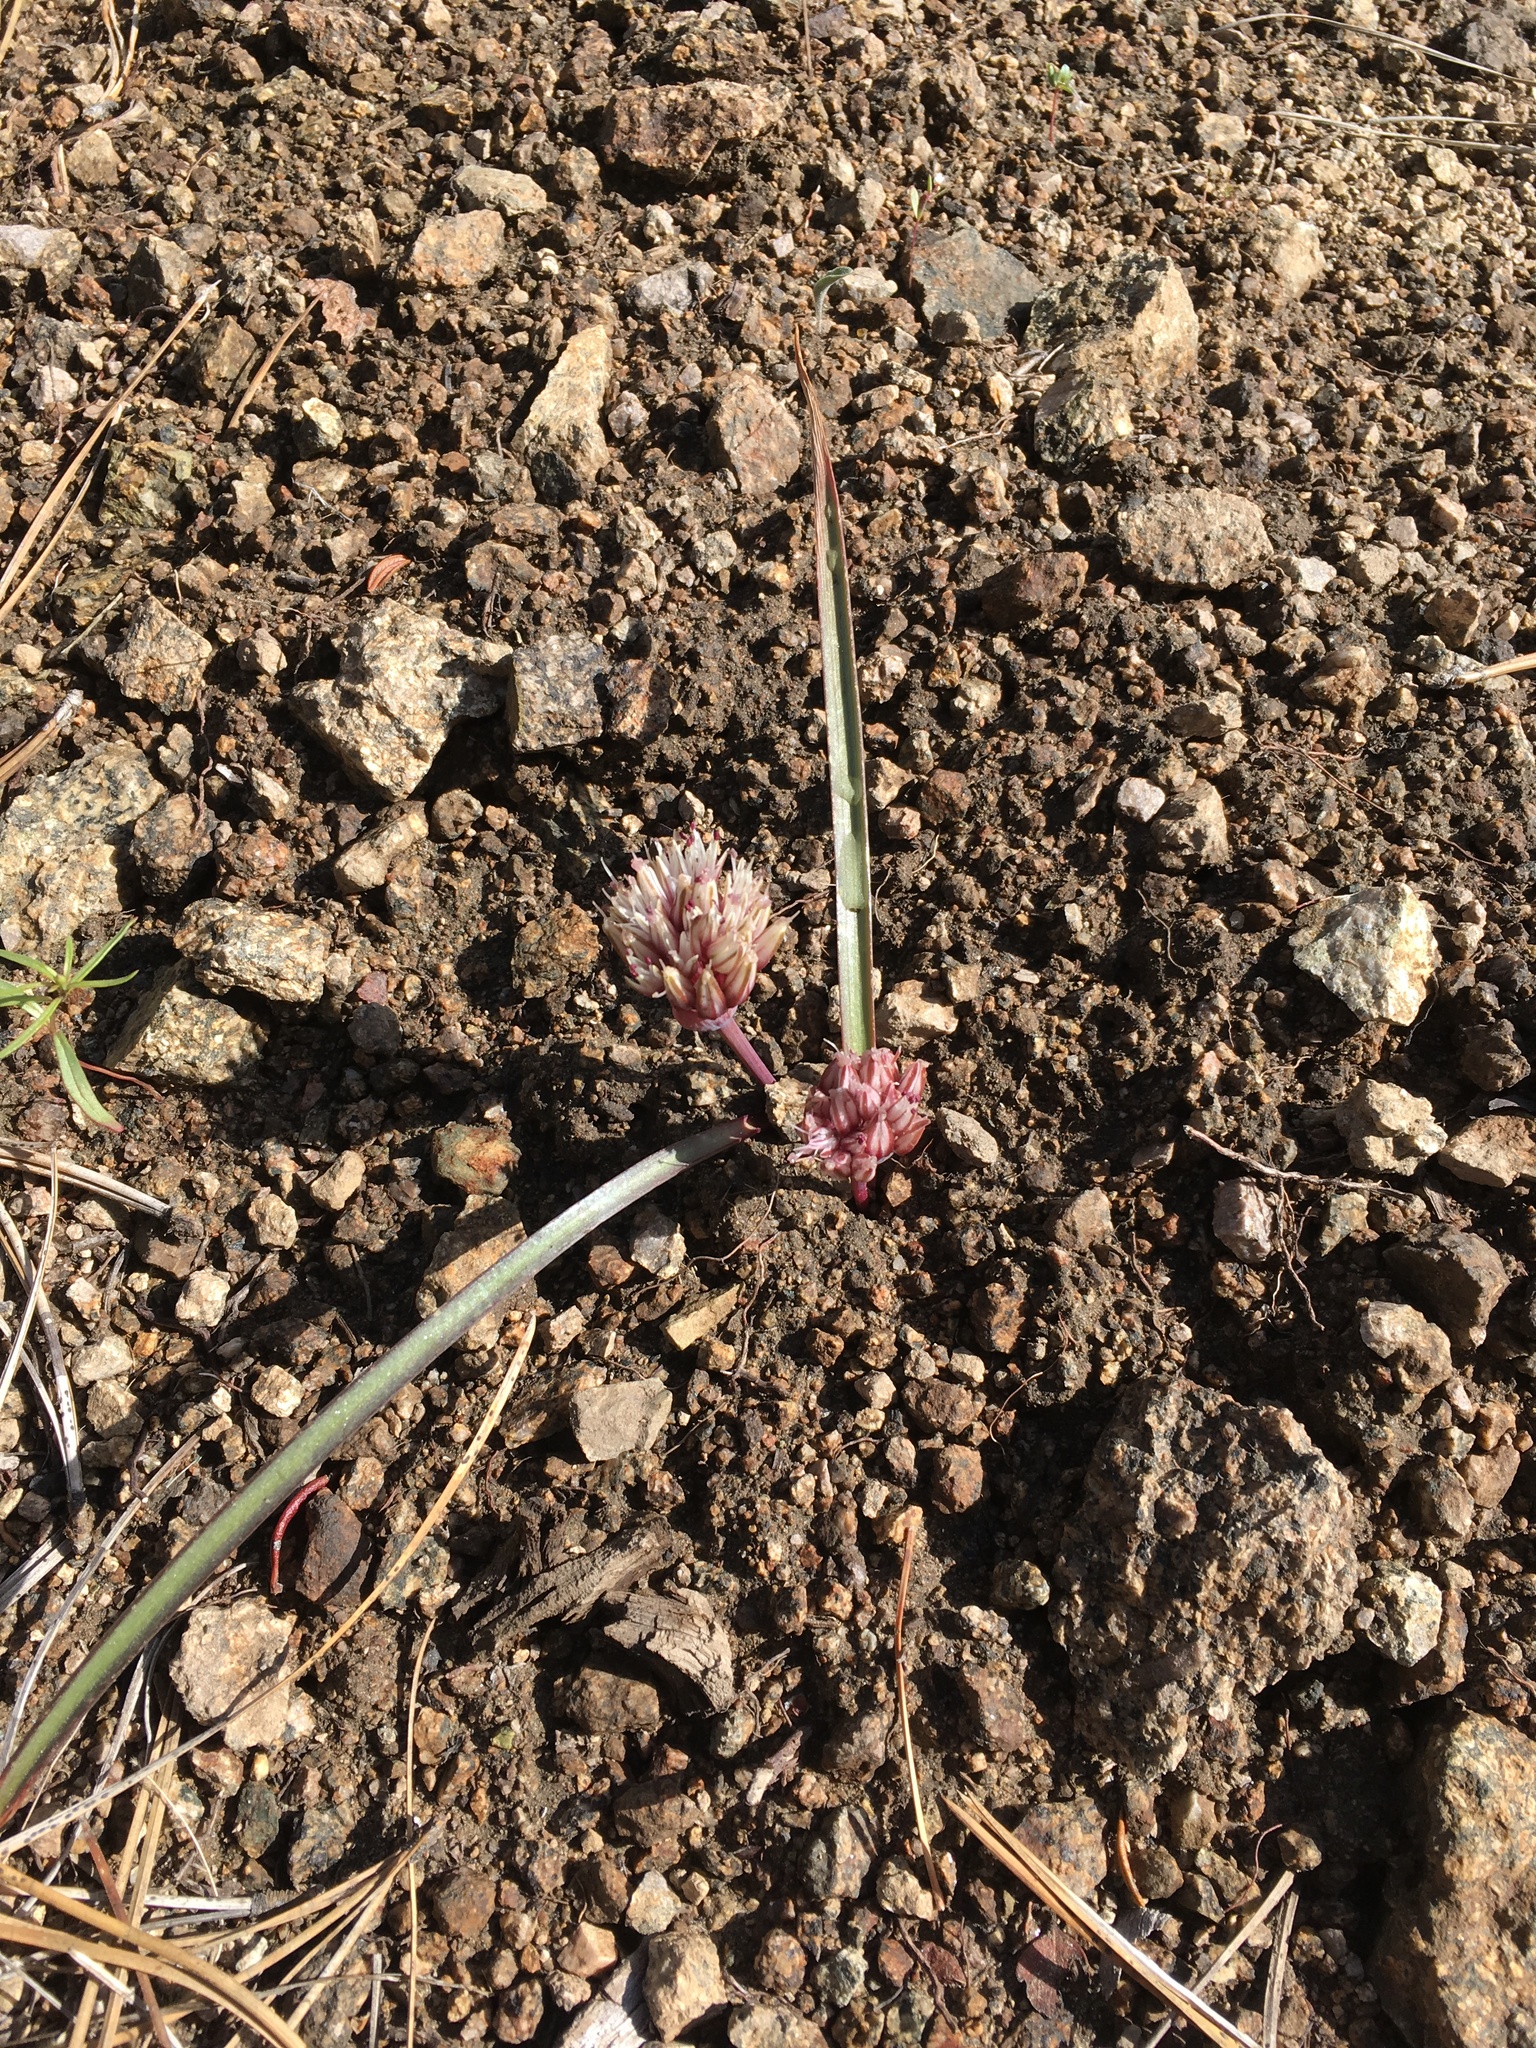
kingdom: Plantae
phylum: Tracheophyta
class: Liliopsida
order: Asparagales
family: Amaryllidaceae
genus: Allium
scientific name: Allium burlewii
